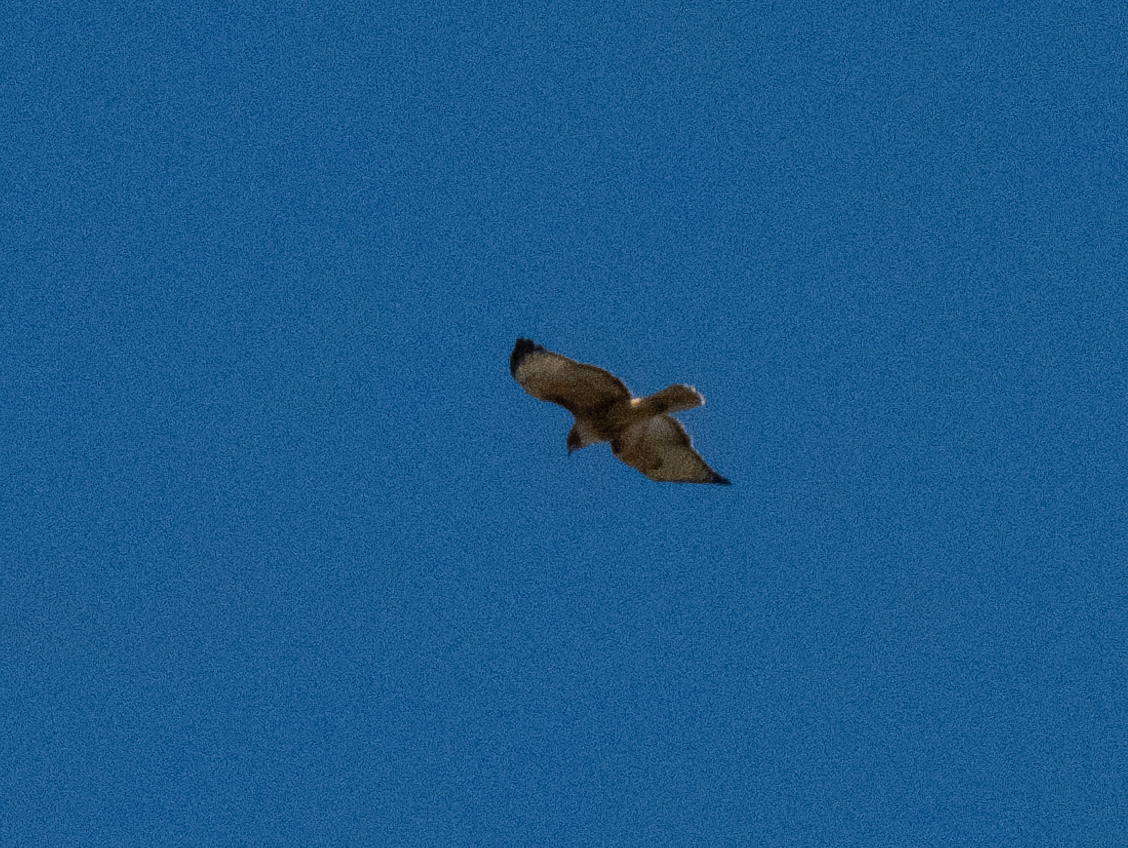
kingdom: Animalia
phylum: Chordata
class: Aves
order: Accipitriformes
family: Accipitridae
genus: Buteo
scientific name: Buteo jamaicensis
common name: Red-tailed hawk
